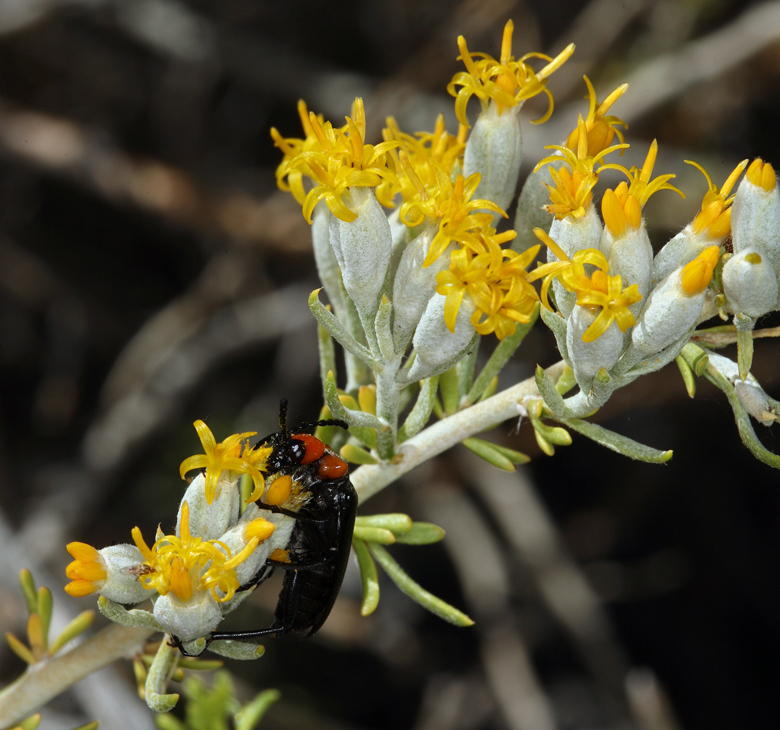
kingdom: Plantae
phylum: Tracheophyta
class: Magnoliopsida
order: Asterales
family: Asteraceae
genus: Tetradymia
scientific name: Tetradymia tetrameres
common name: Dune horsebrush
